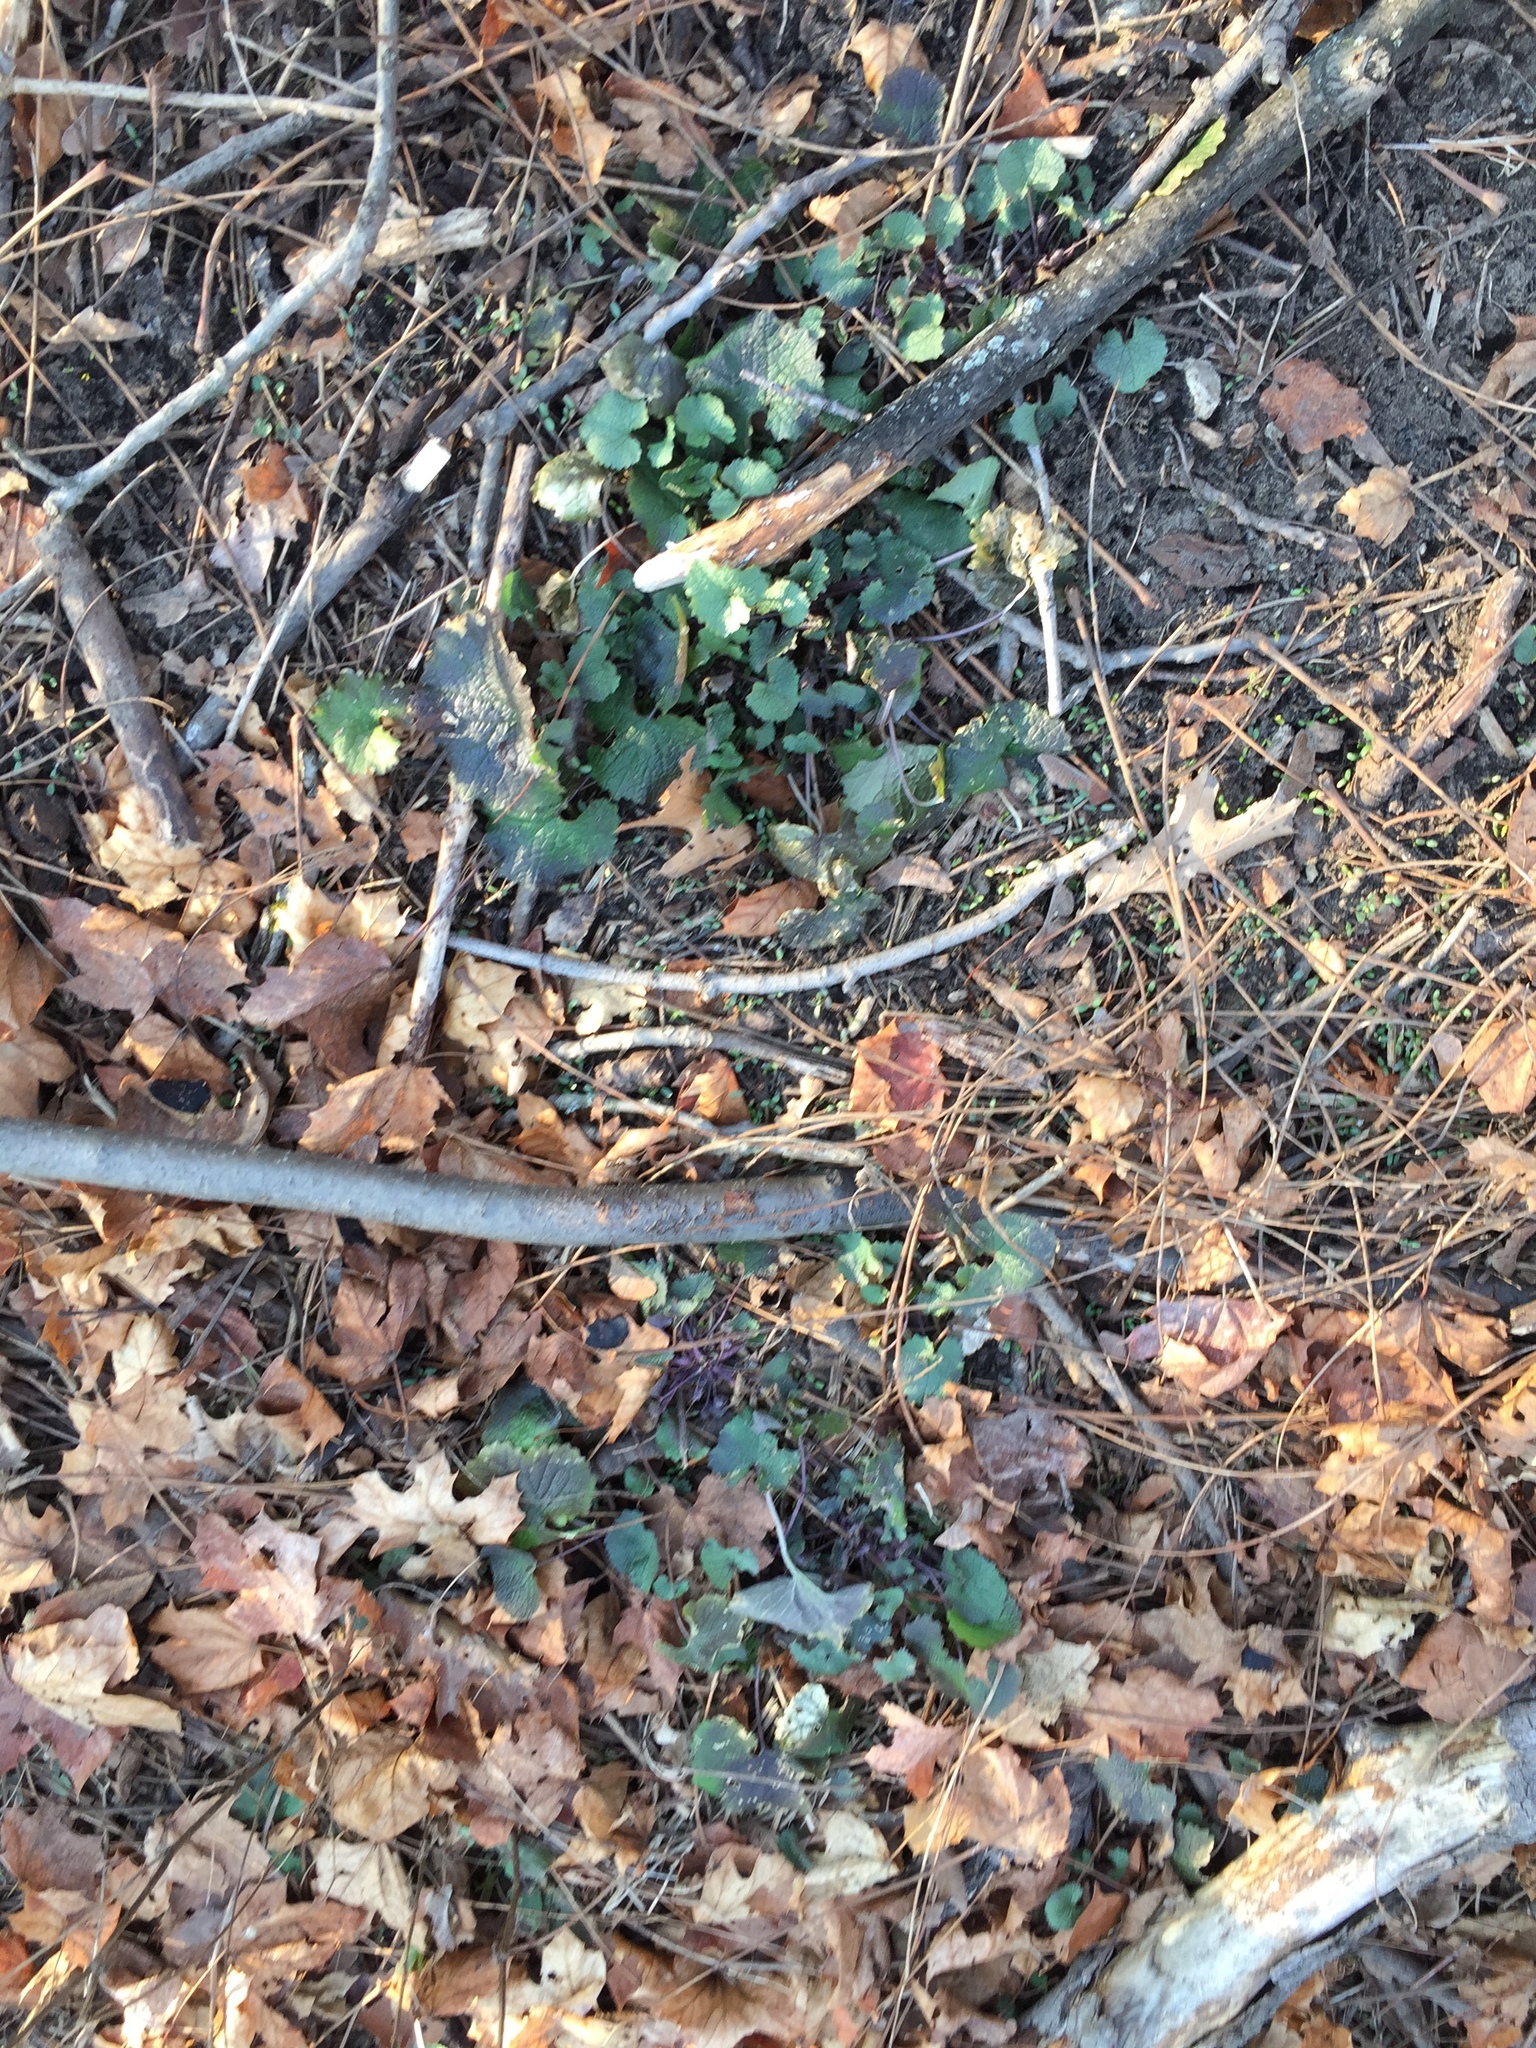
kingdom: Plantae
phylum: Tracheophyta
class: Magnoliopsida
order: Brassicales
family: Brassicaceae
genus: Alliaria
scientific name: Alliaria petiolata
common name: Garlic mustard
